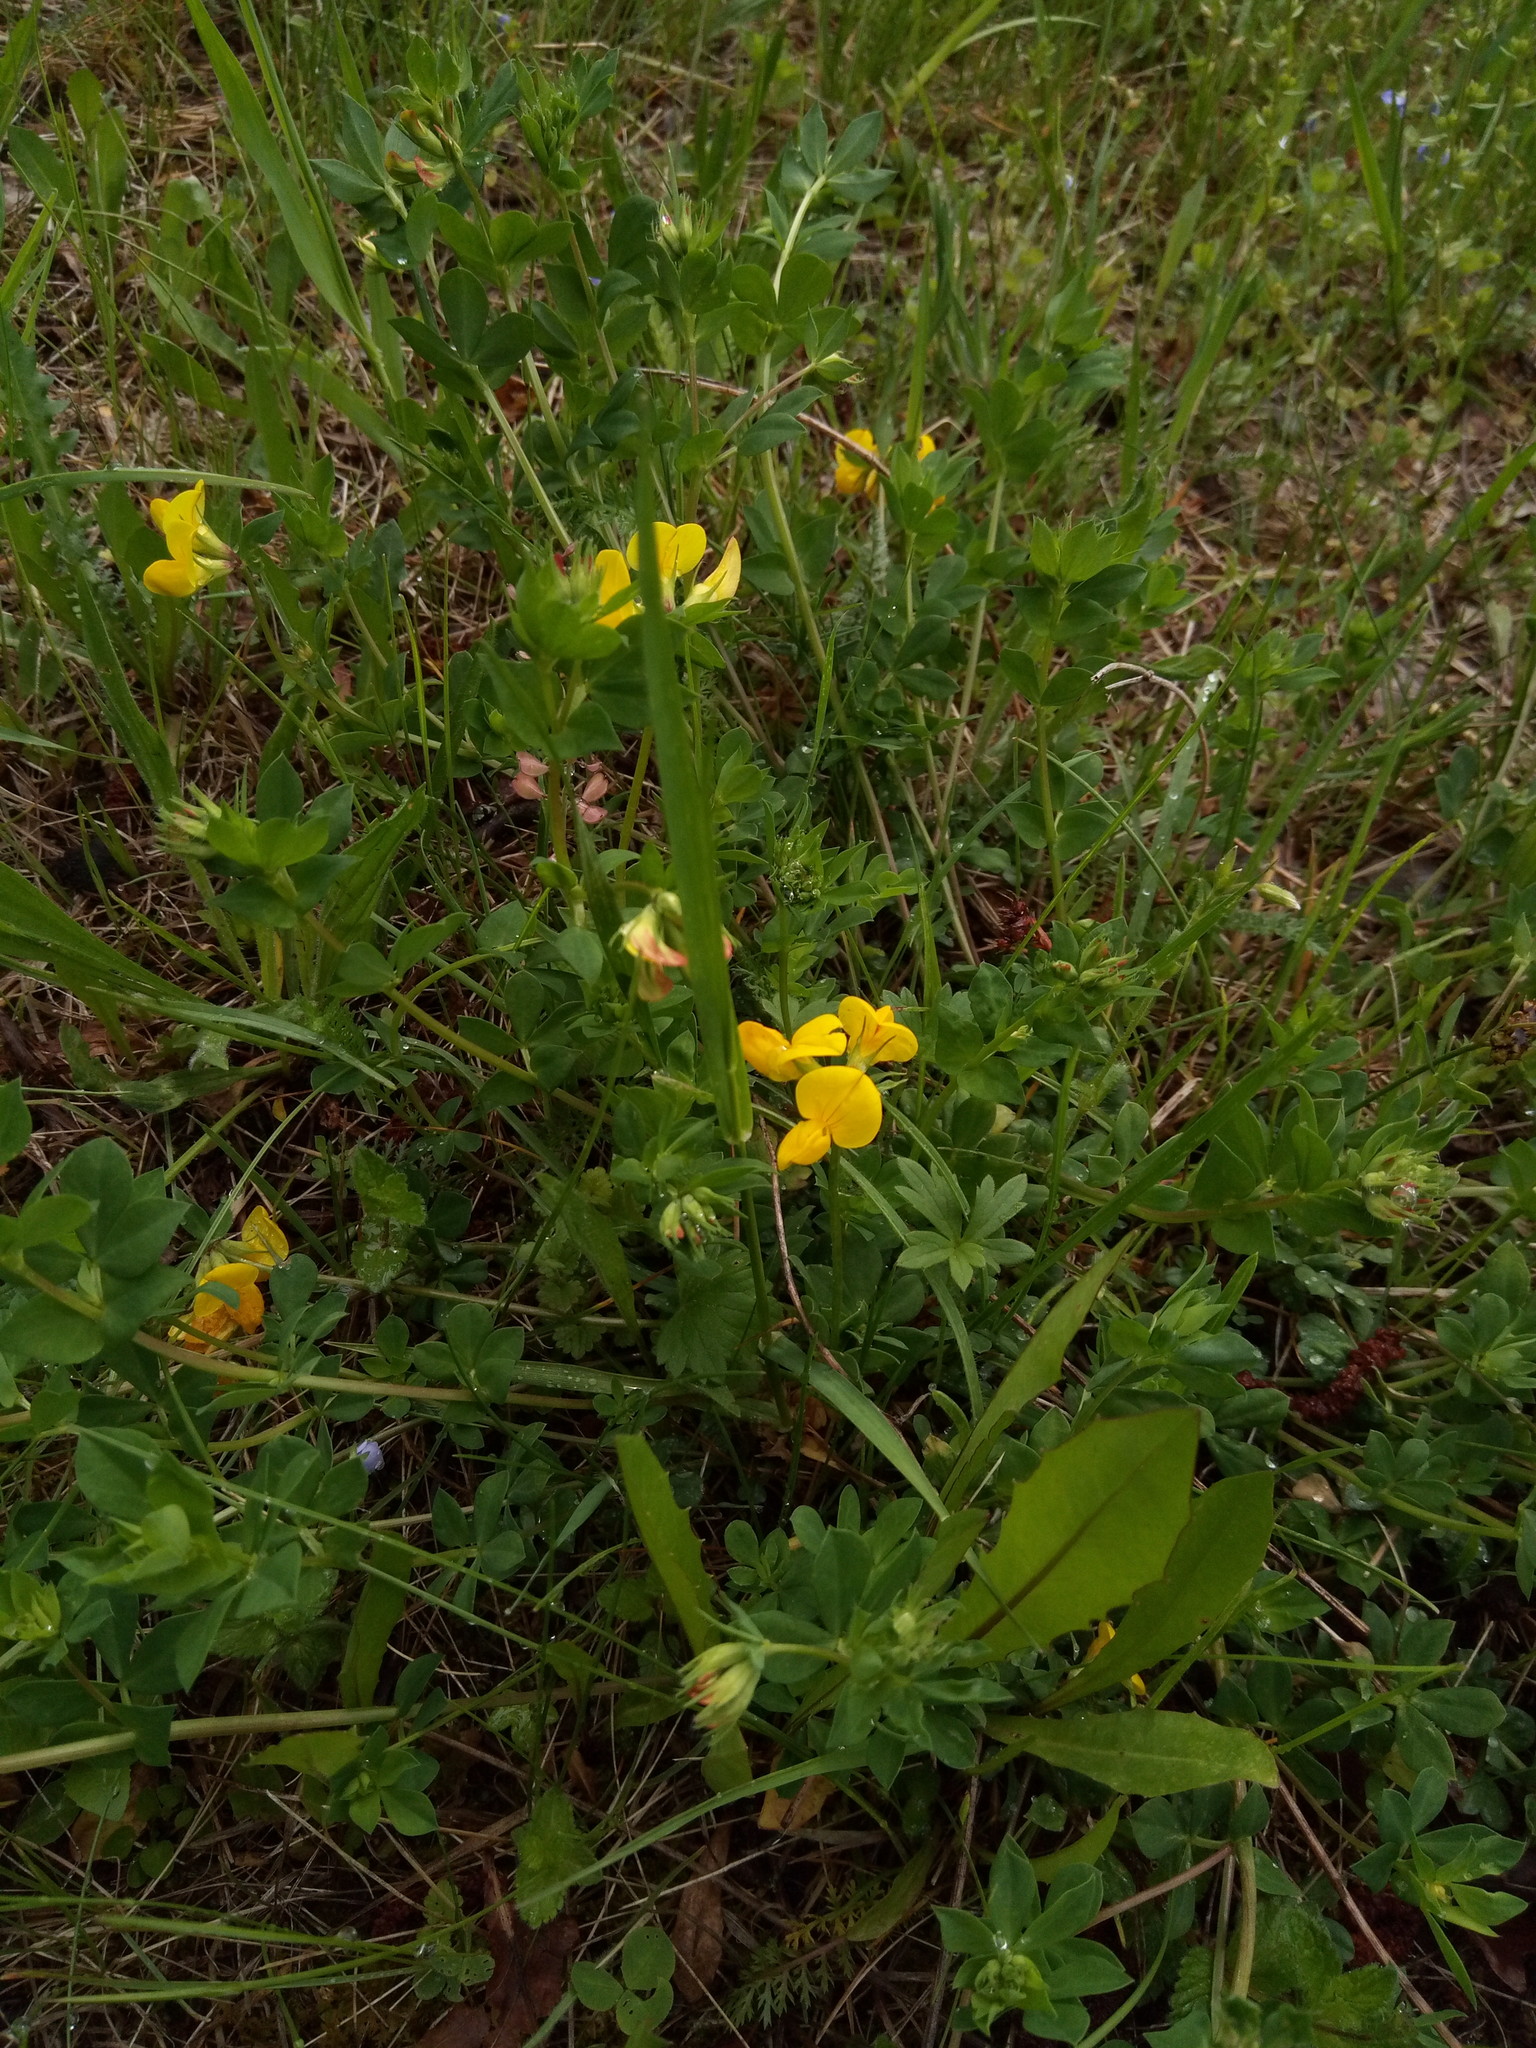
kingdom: Plantae
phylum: Tracheophyta
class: Magnoliopsida
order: Fabales
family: Fabaceae
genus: Lotus
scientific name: Lotus corniculatus
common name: Common bird's-foot-trefoil
